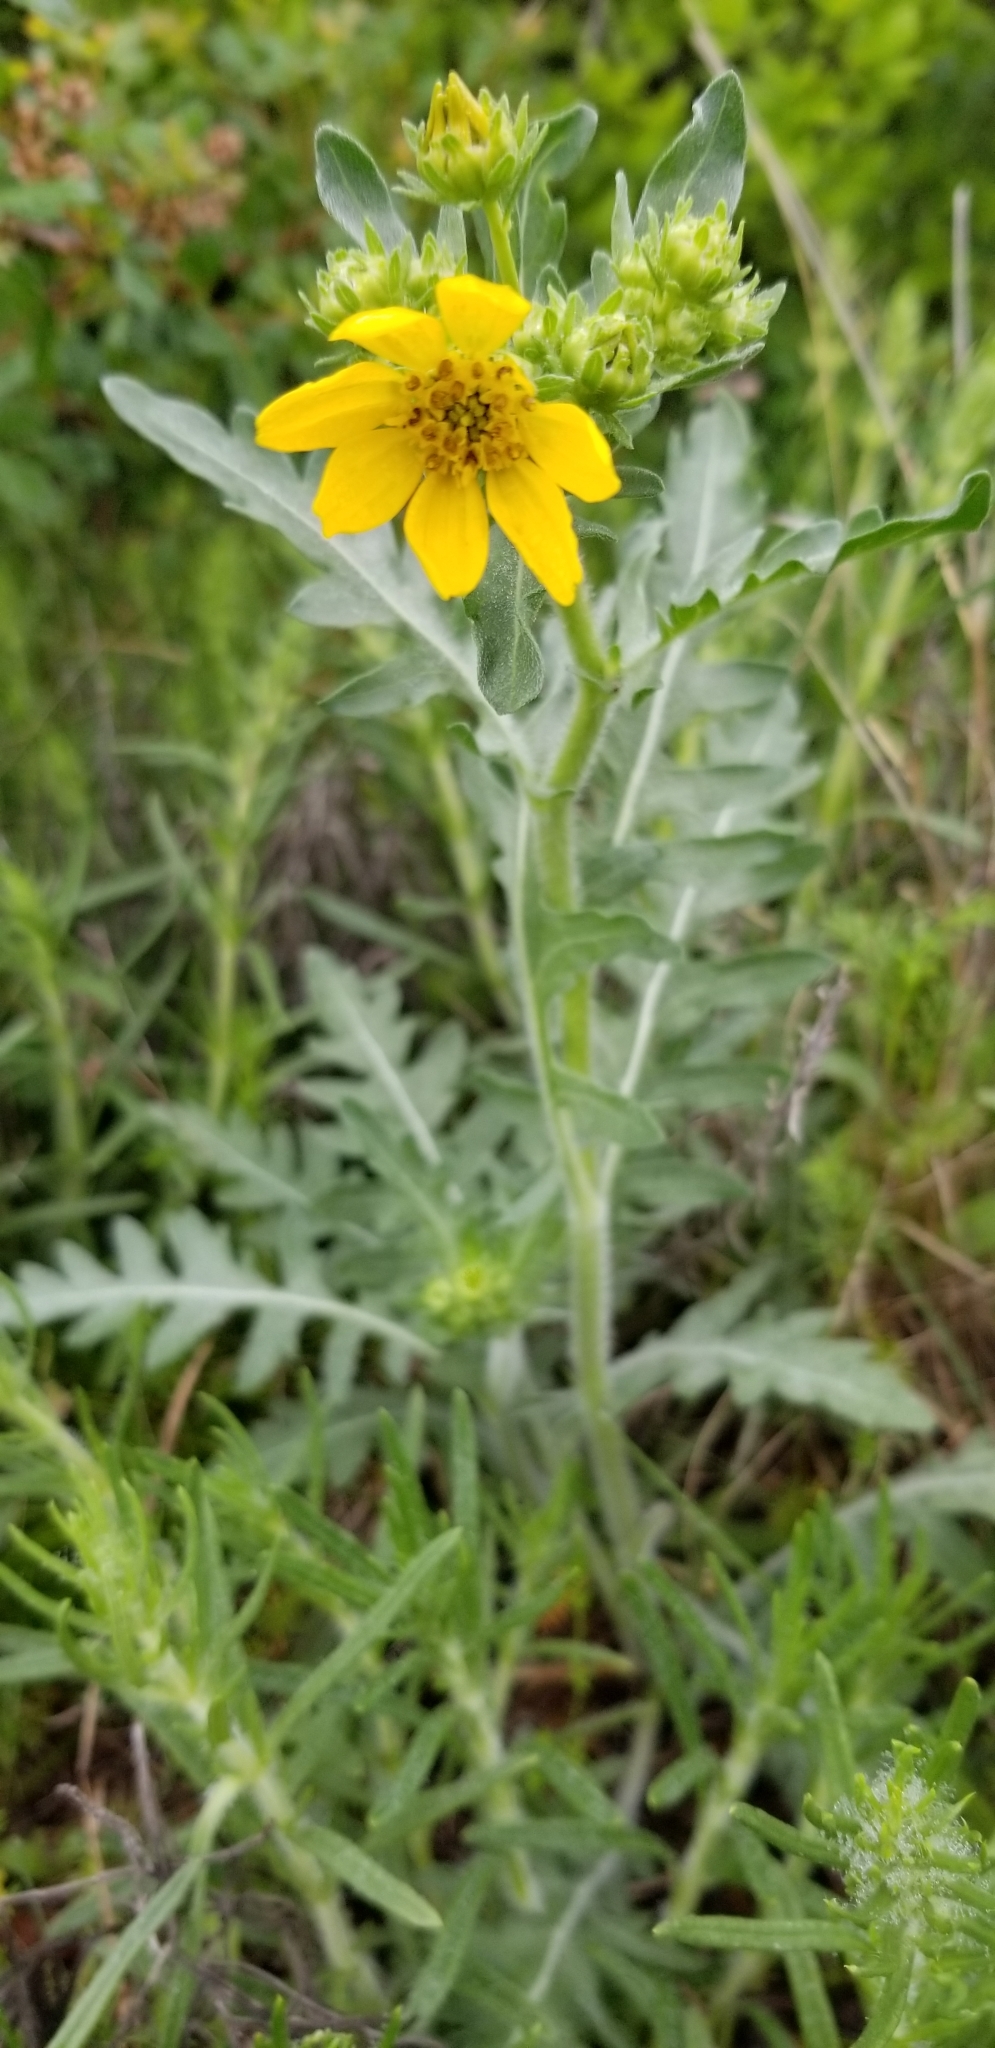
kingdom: Plantae
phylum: Tracheophyta
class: Magnoliopsida
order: Asterales
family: Asteraceae
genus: Engelmannia
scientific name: Engelmannia peristenia
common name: Engelmann's daisy
